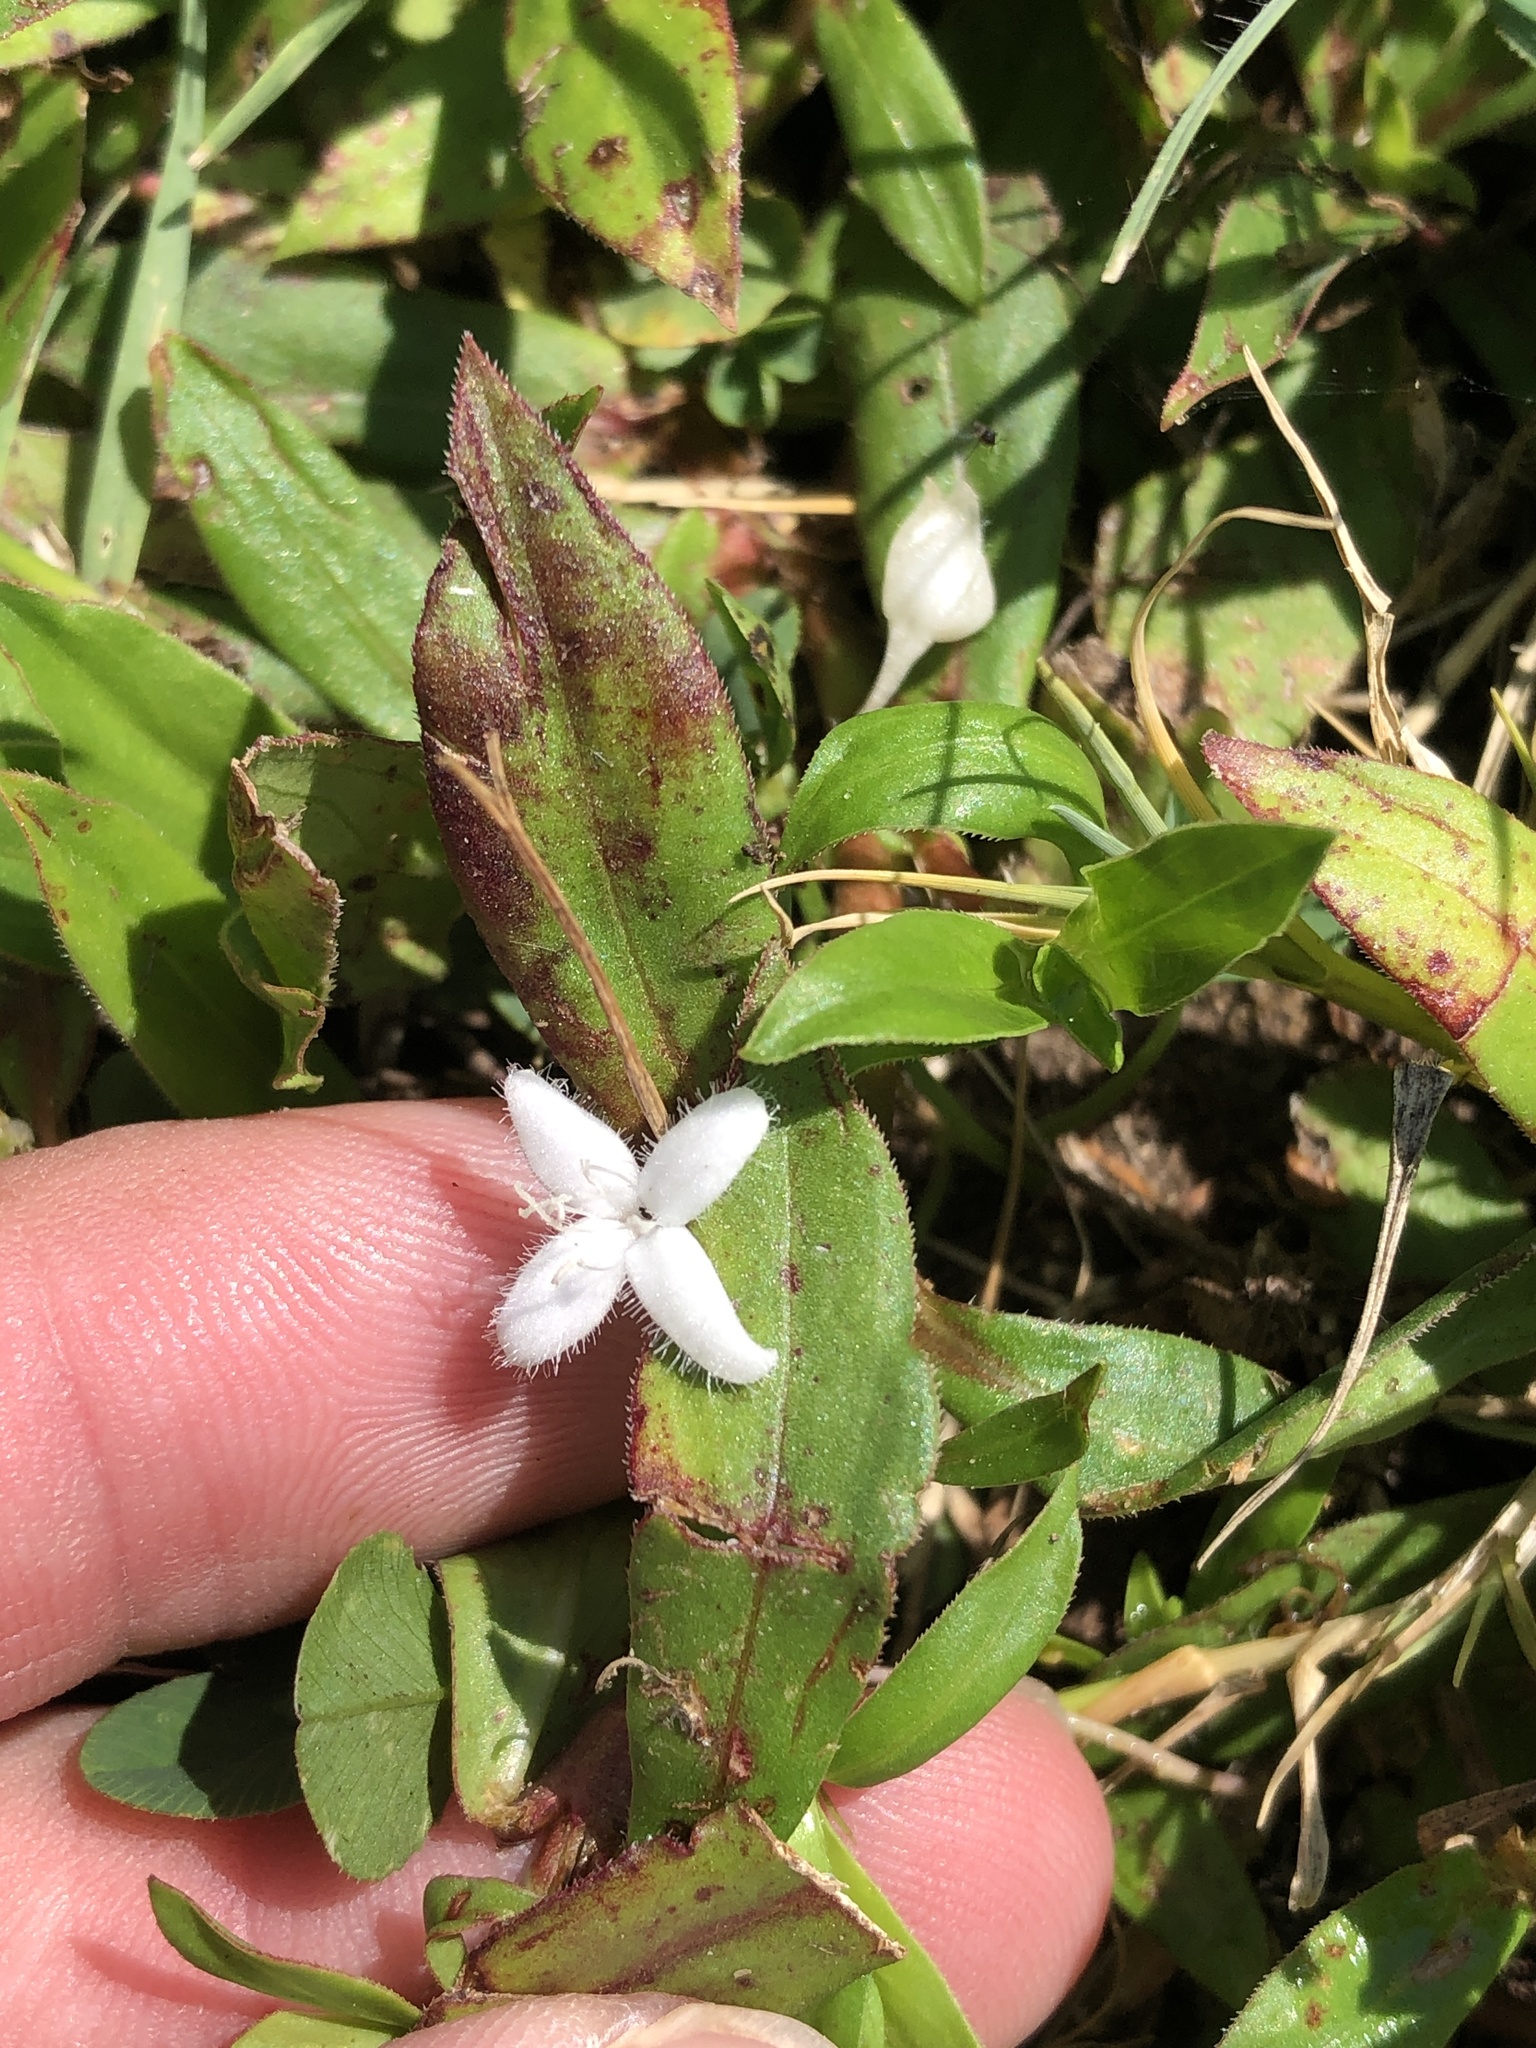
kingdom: Plantae
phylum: Tracheophyta
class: Magnoliopsida
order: Gentianales
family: Rubiaceae
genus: Diodia
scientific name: Diodia virginiana
